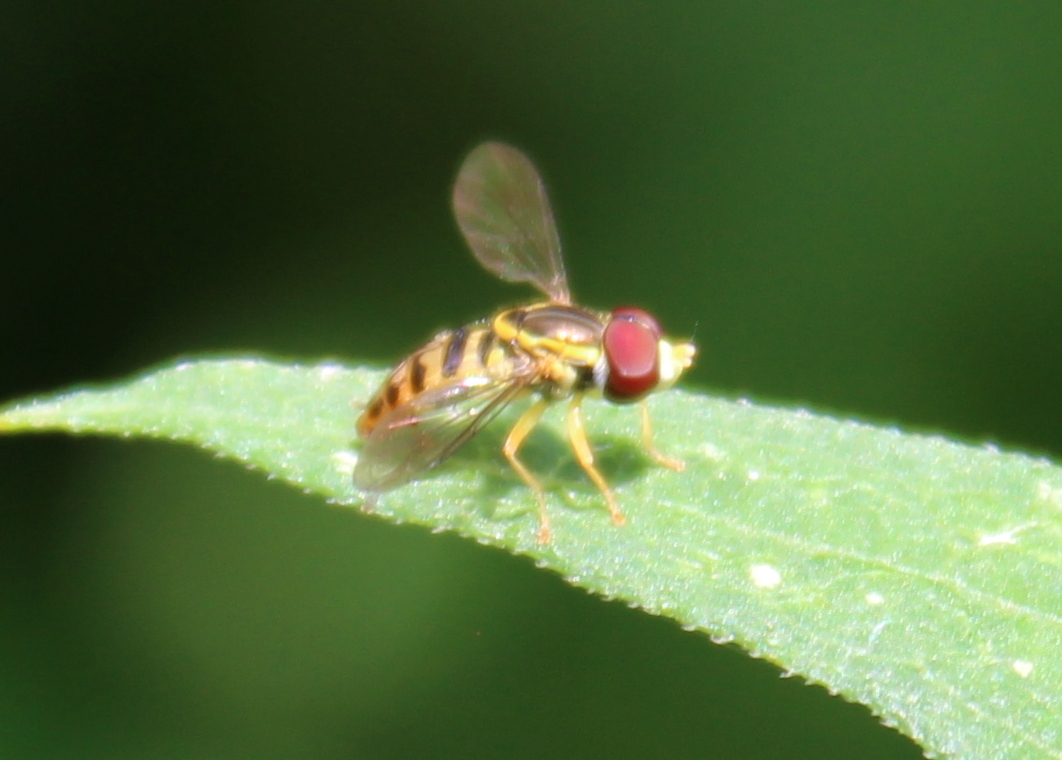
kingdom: Animalia
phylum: Arthropoda
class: Insecta
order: Diptera
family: Syrphidae
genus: Toxomerus
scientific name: Toxomerus geminatus
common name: Eastern calligrapher
